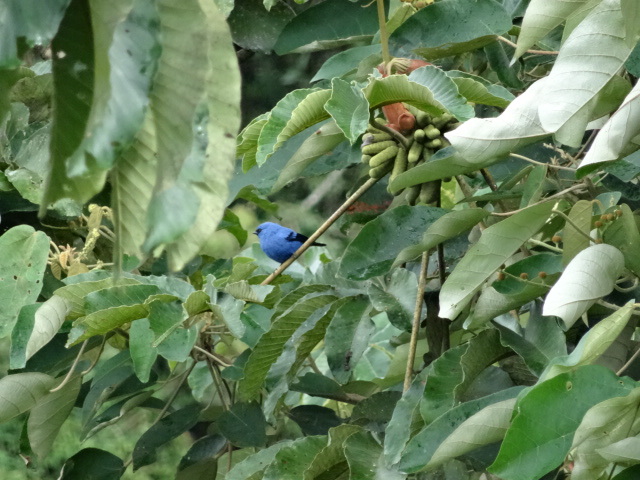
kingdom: Animalia
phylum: Chordata
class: Aves
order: Passeriformes
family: Thraupidae
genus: Tangara
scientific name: Tangara vassorii
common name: Blue-and-black tanager
